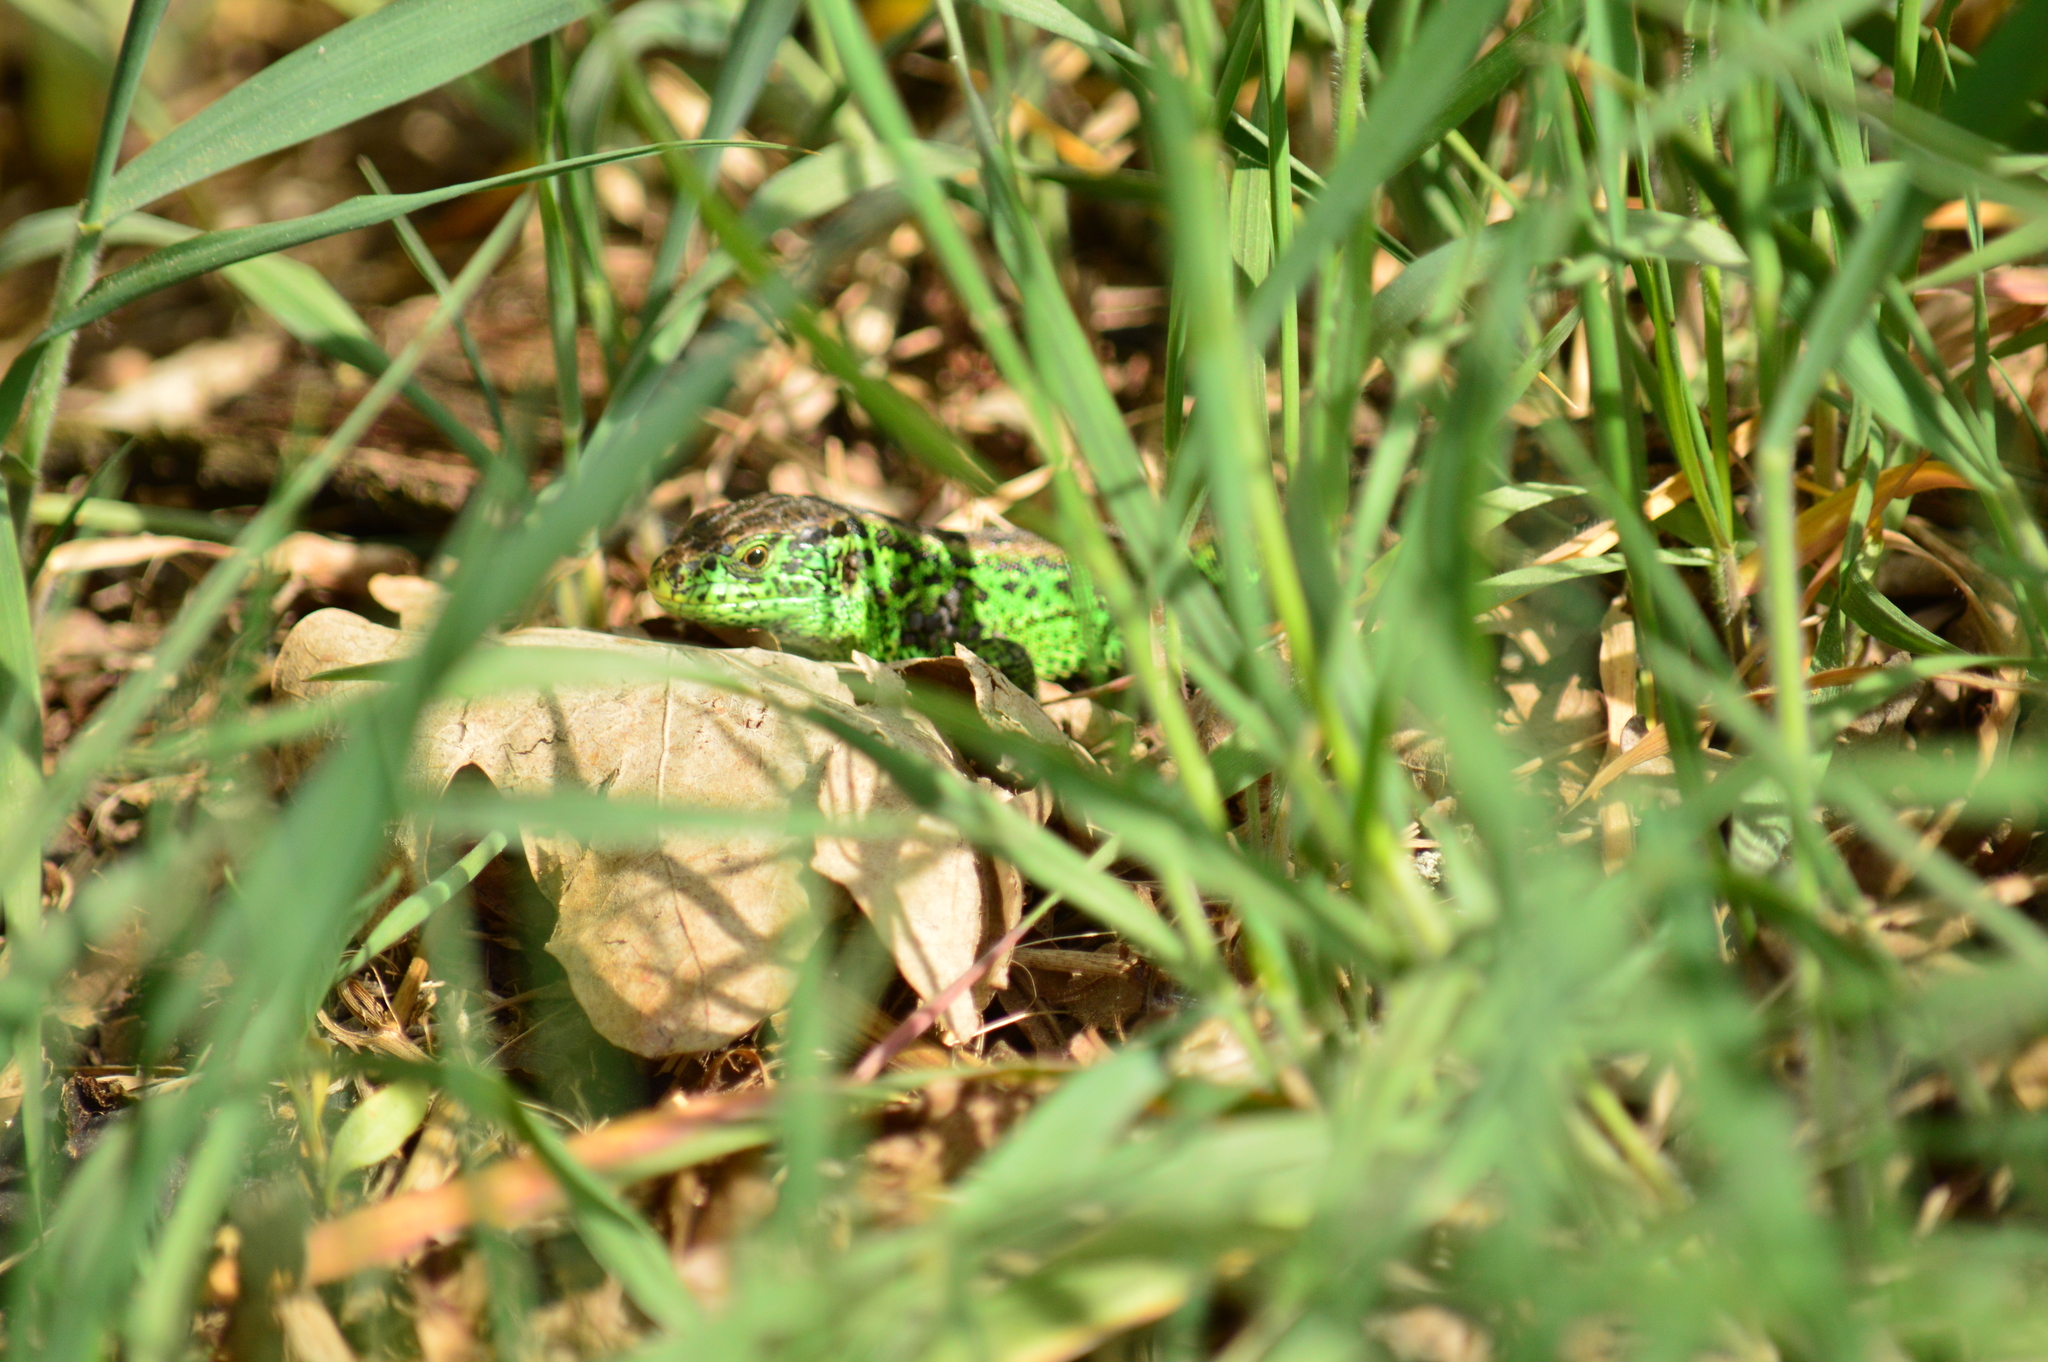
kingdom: Animalia
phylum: Chordata
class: Squamata
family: Lacertidae
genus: Lacerta
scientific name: Lacerta agilis
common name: Sand lizard
